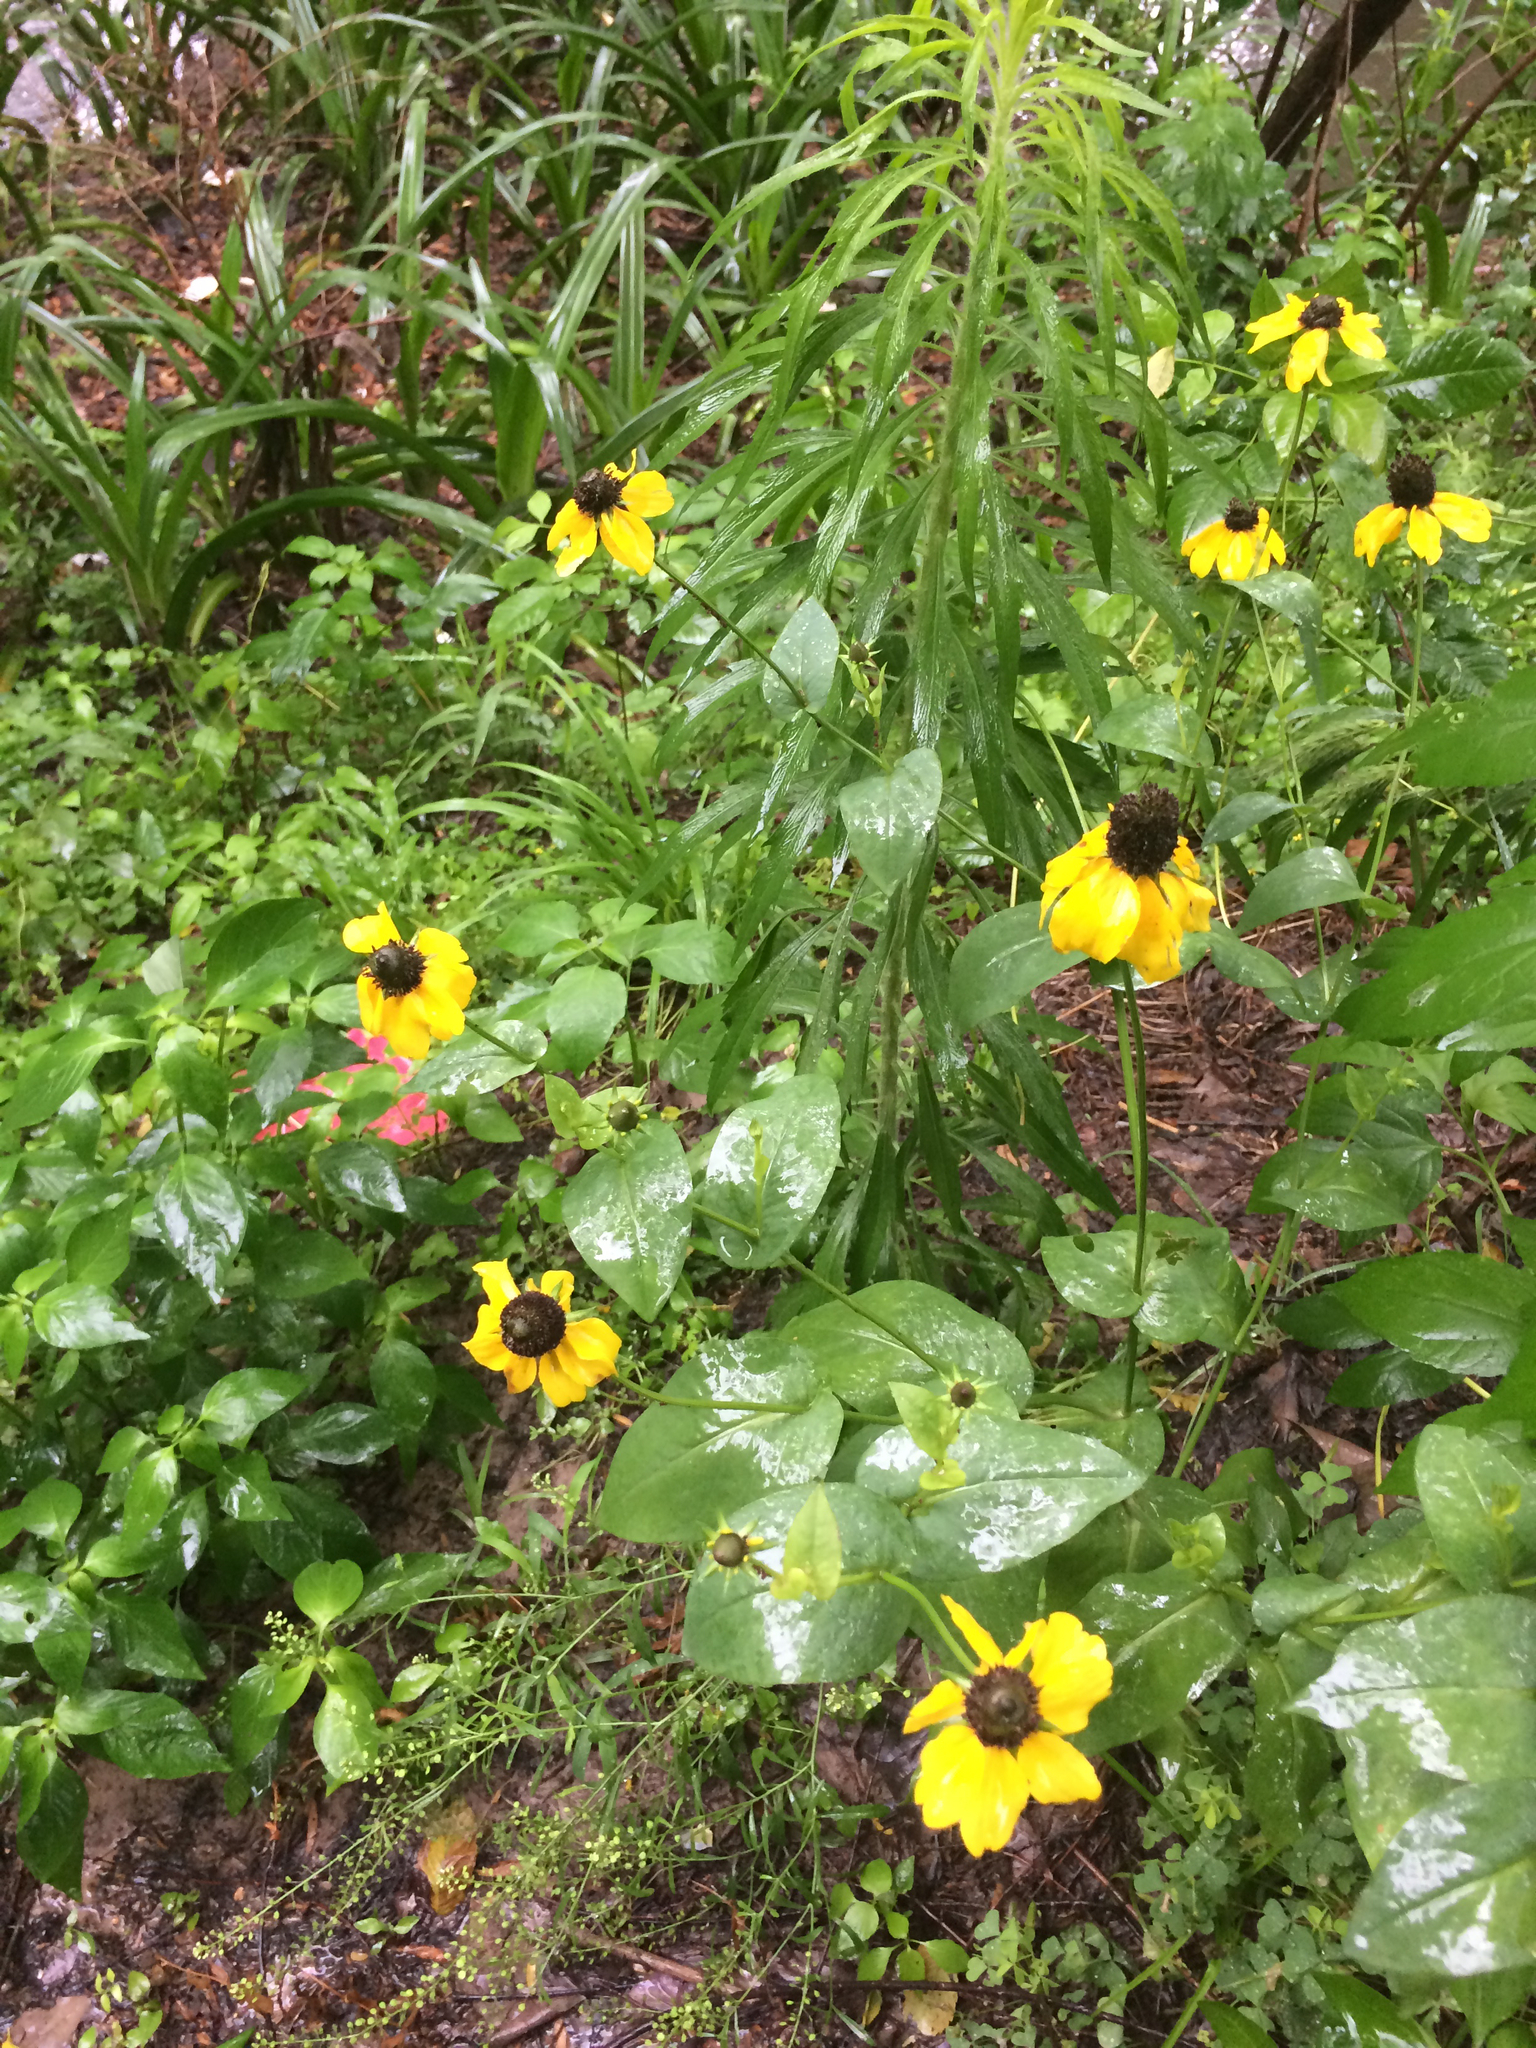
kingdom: Plantae
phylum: Tracheophyta
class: Magnoliopsida
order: Asterales
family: Asteraceae
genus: Rudbeckia
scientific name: Rudbeckia amplexicaulis
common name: Clasping-leaf coneflower
